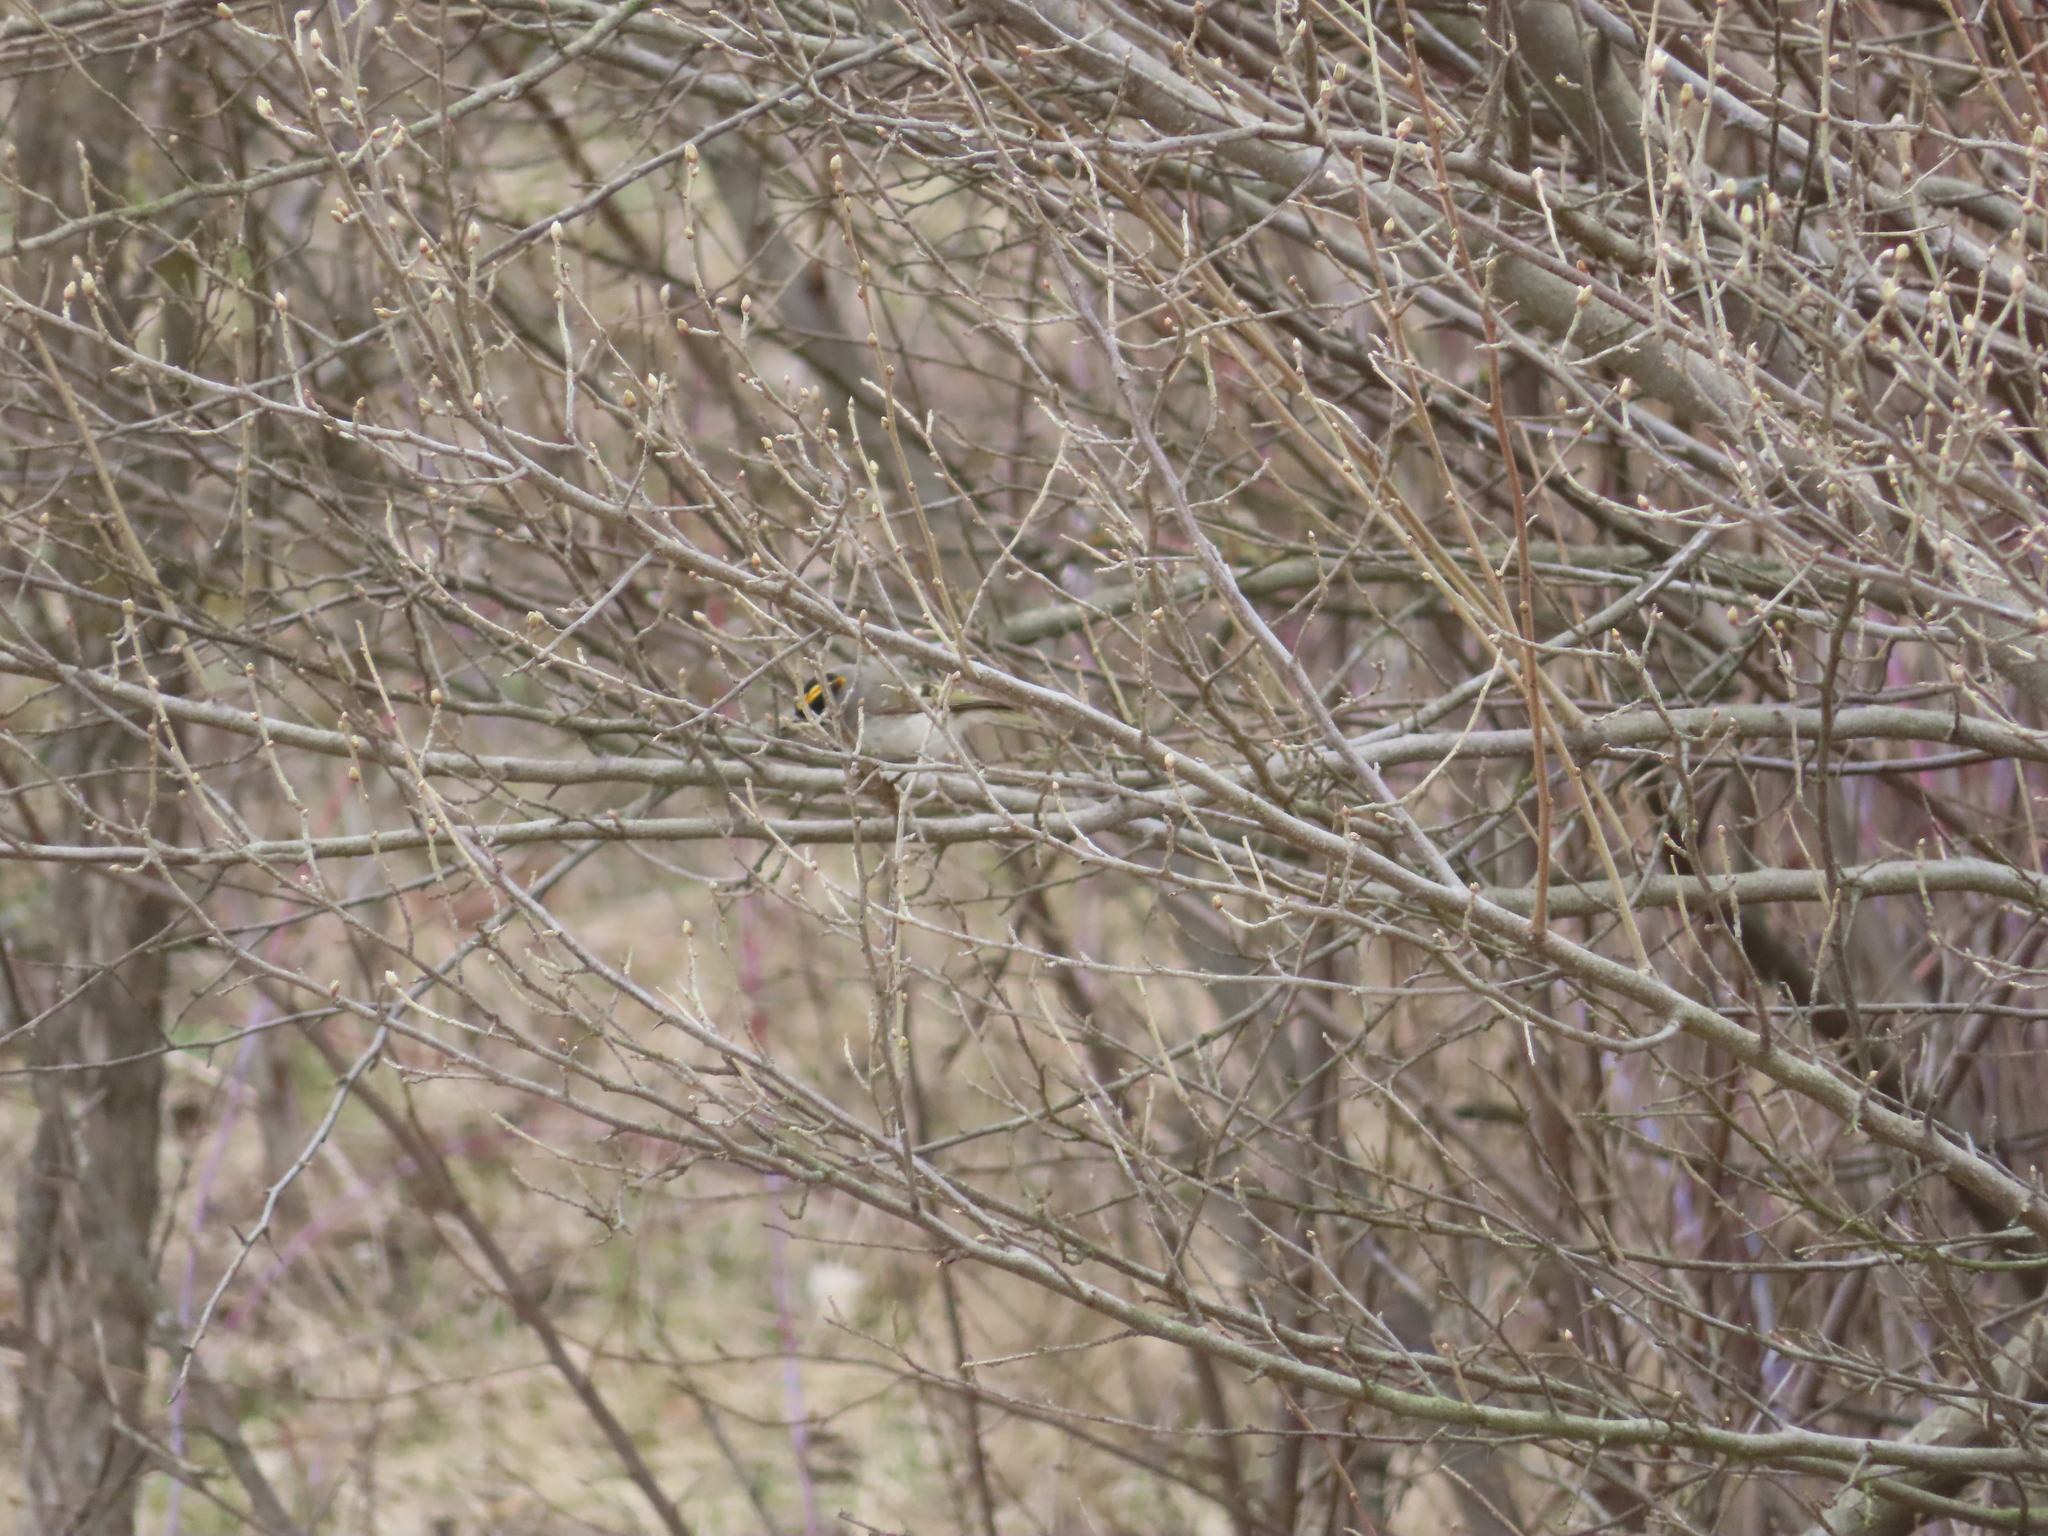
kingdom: Animalia
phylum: Chordata
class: Aves
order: Passeriformes
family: Regulidae
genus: Regulus
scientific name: Regulus satrapa
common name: Golden-crowned kinglet
